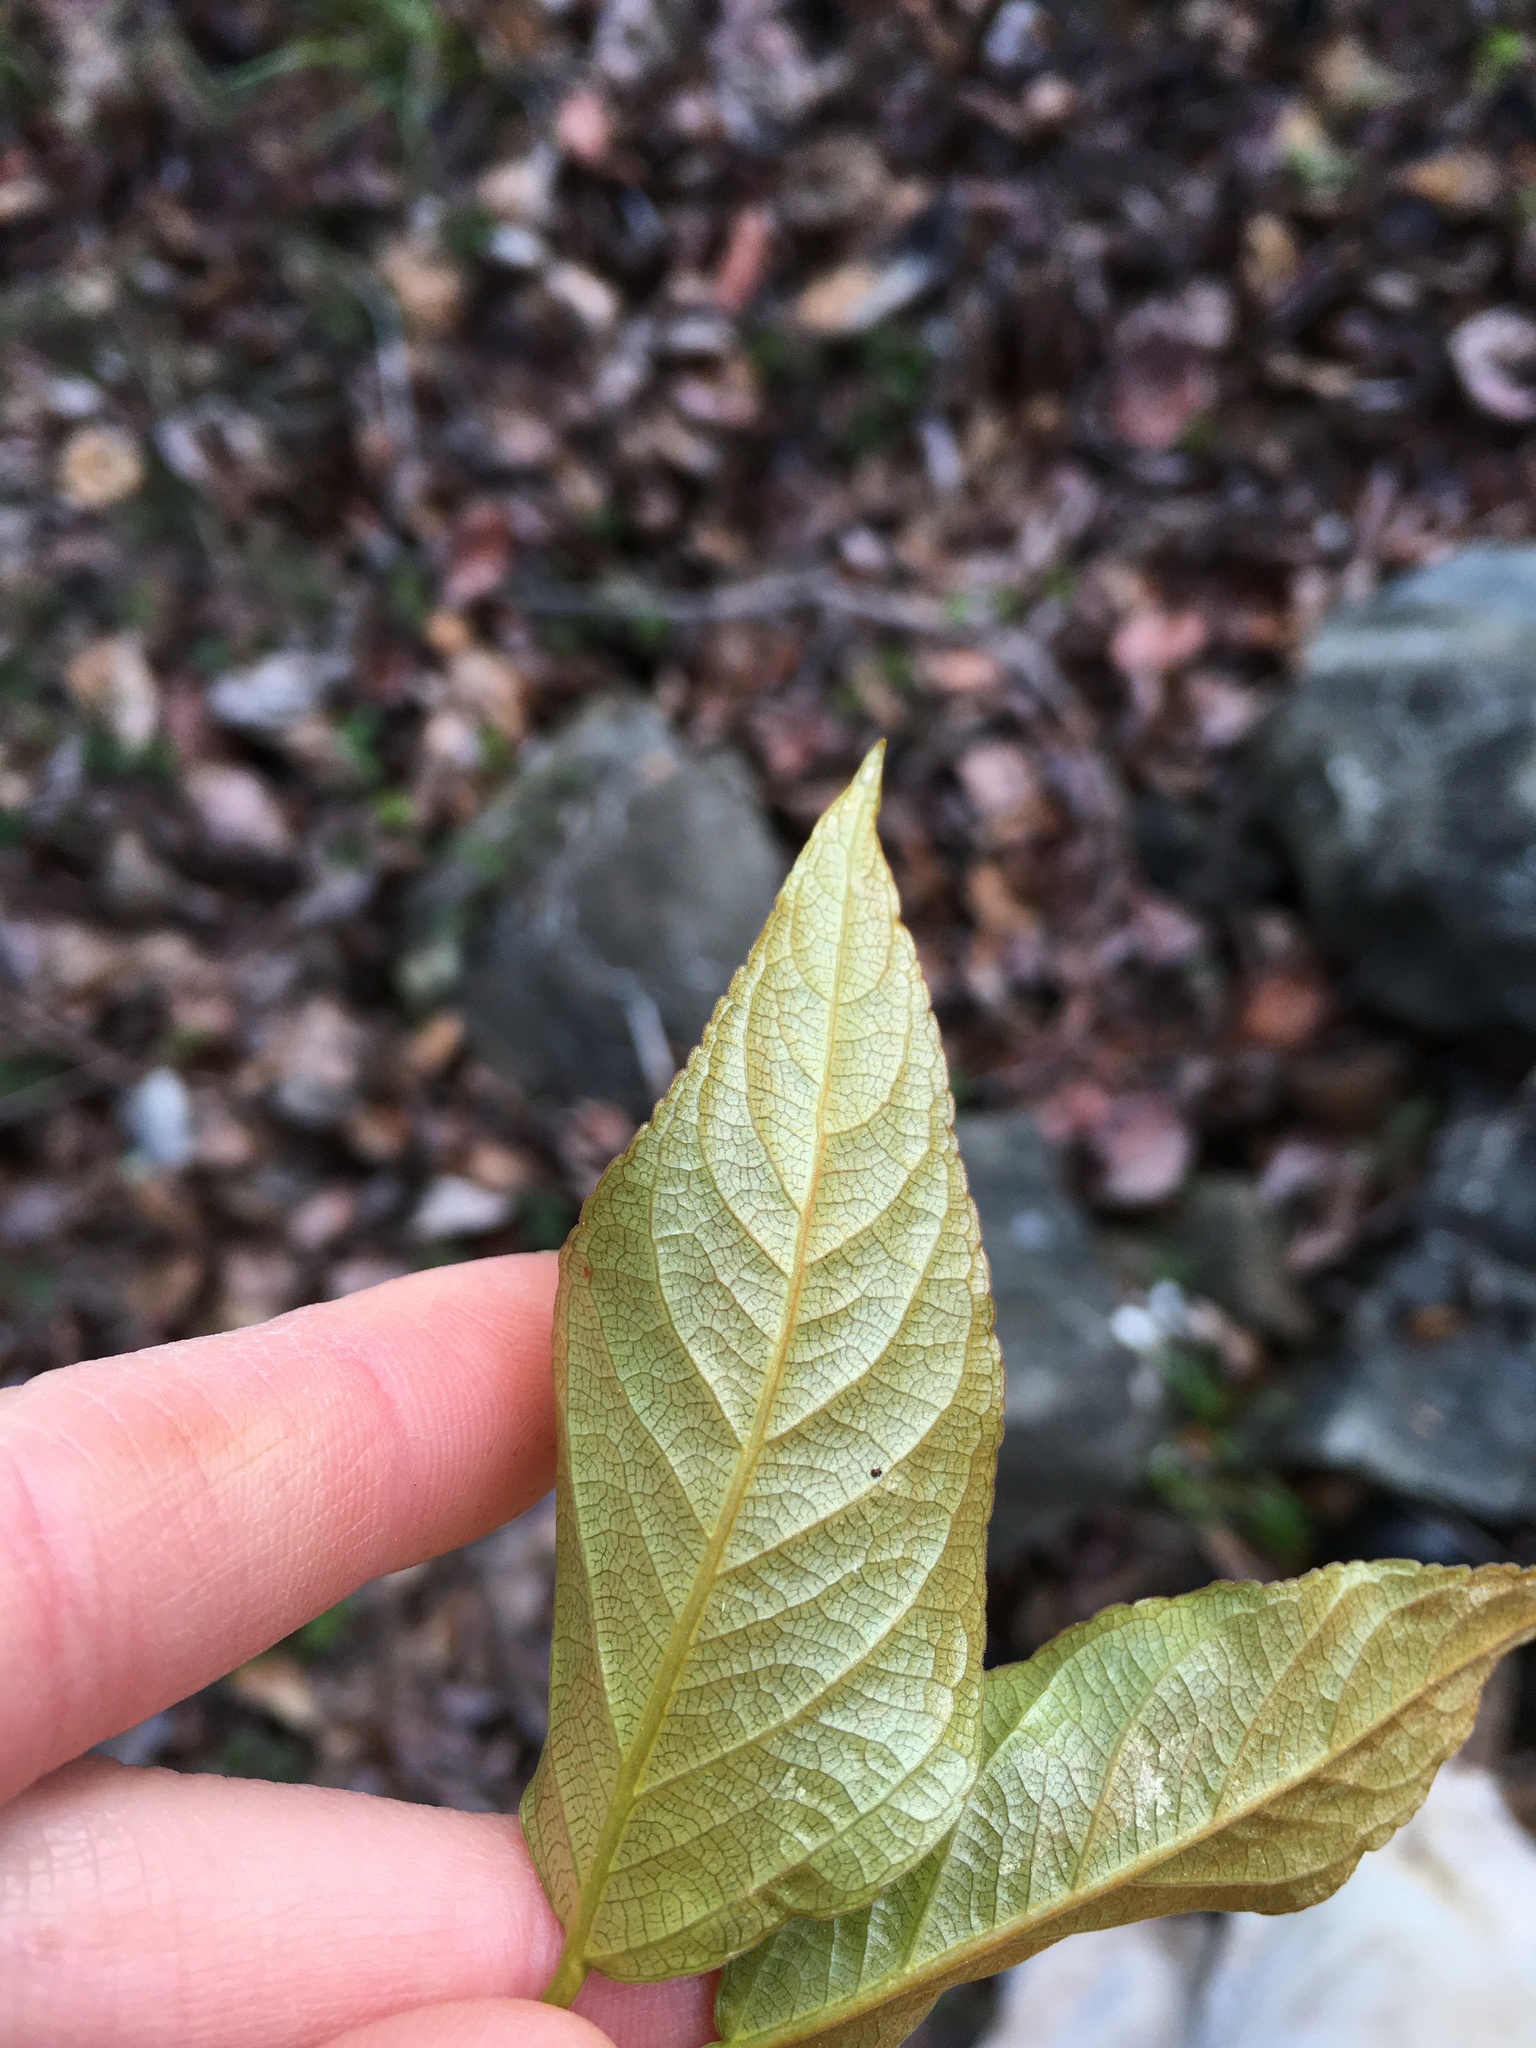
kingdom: Plantae
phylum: Tracheophyta
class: Magnoliopsida
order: Malpighiales
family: Salicaceae
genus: Populus
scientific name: Populus trichocarpa
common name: Black cottonwood
